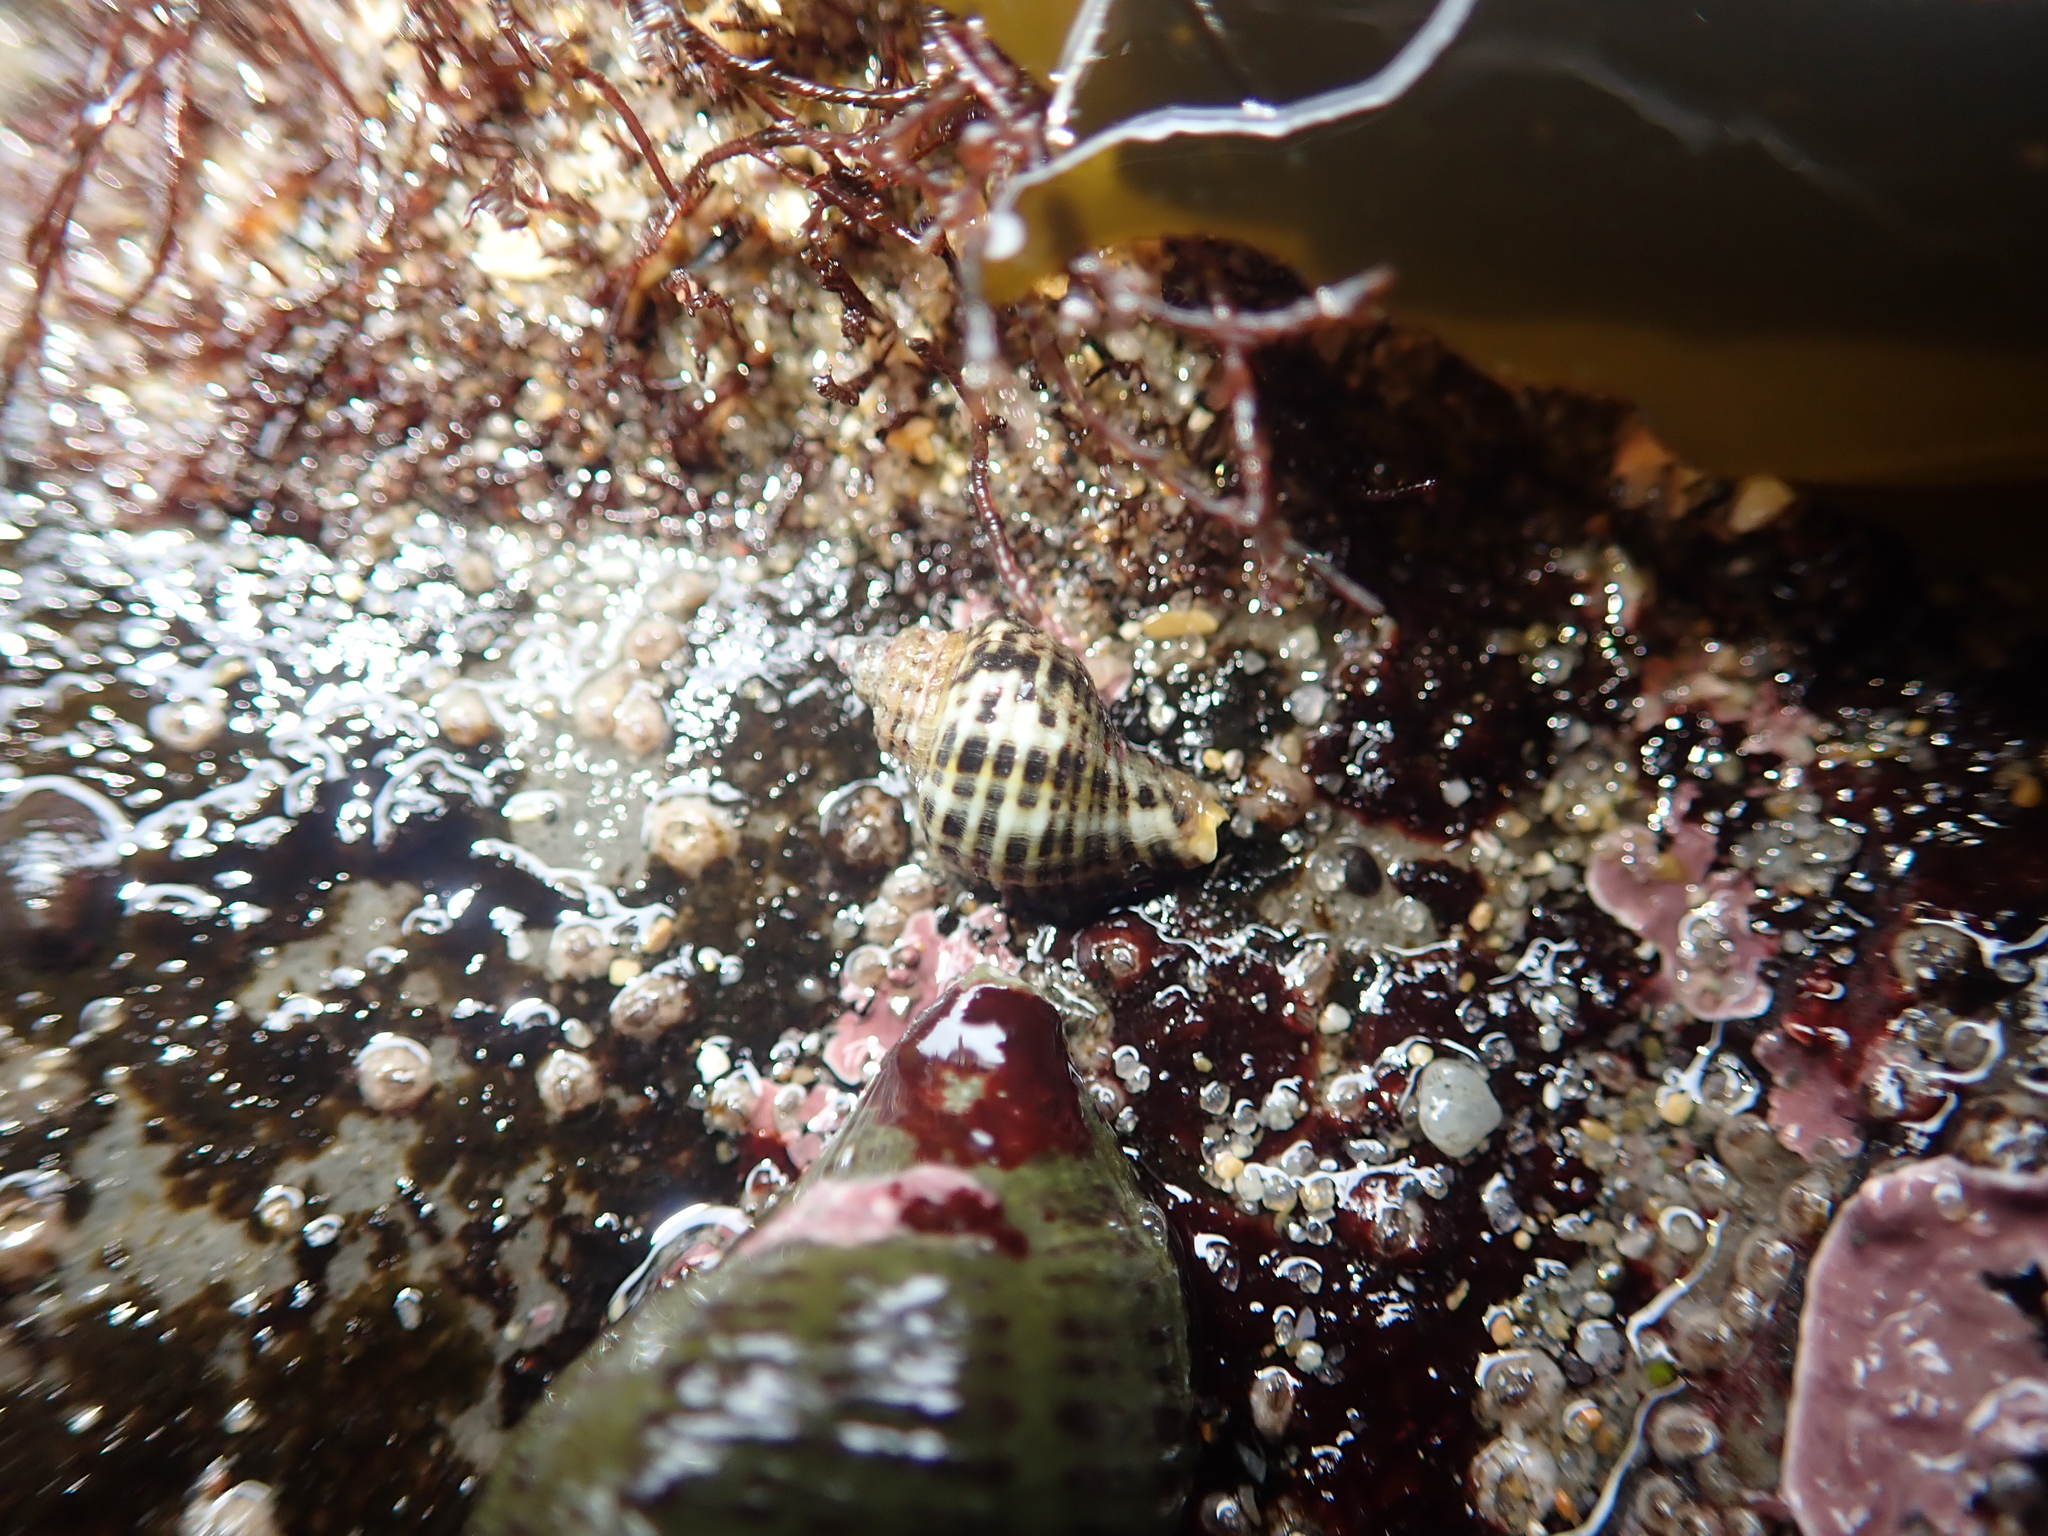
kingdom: Animalia
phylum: Mollusca
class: Gastropoda
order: Neogastropoda
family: Muricidae
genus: Acanthinucella
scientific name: Acanthinucella spirata
